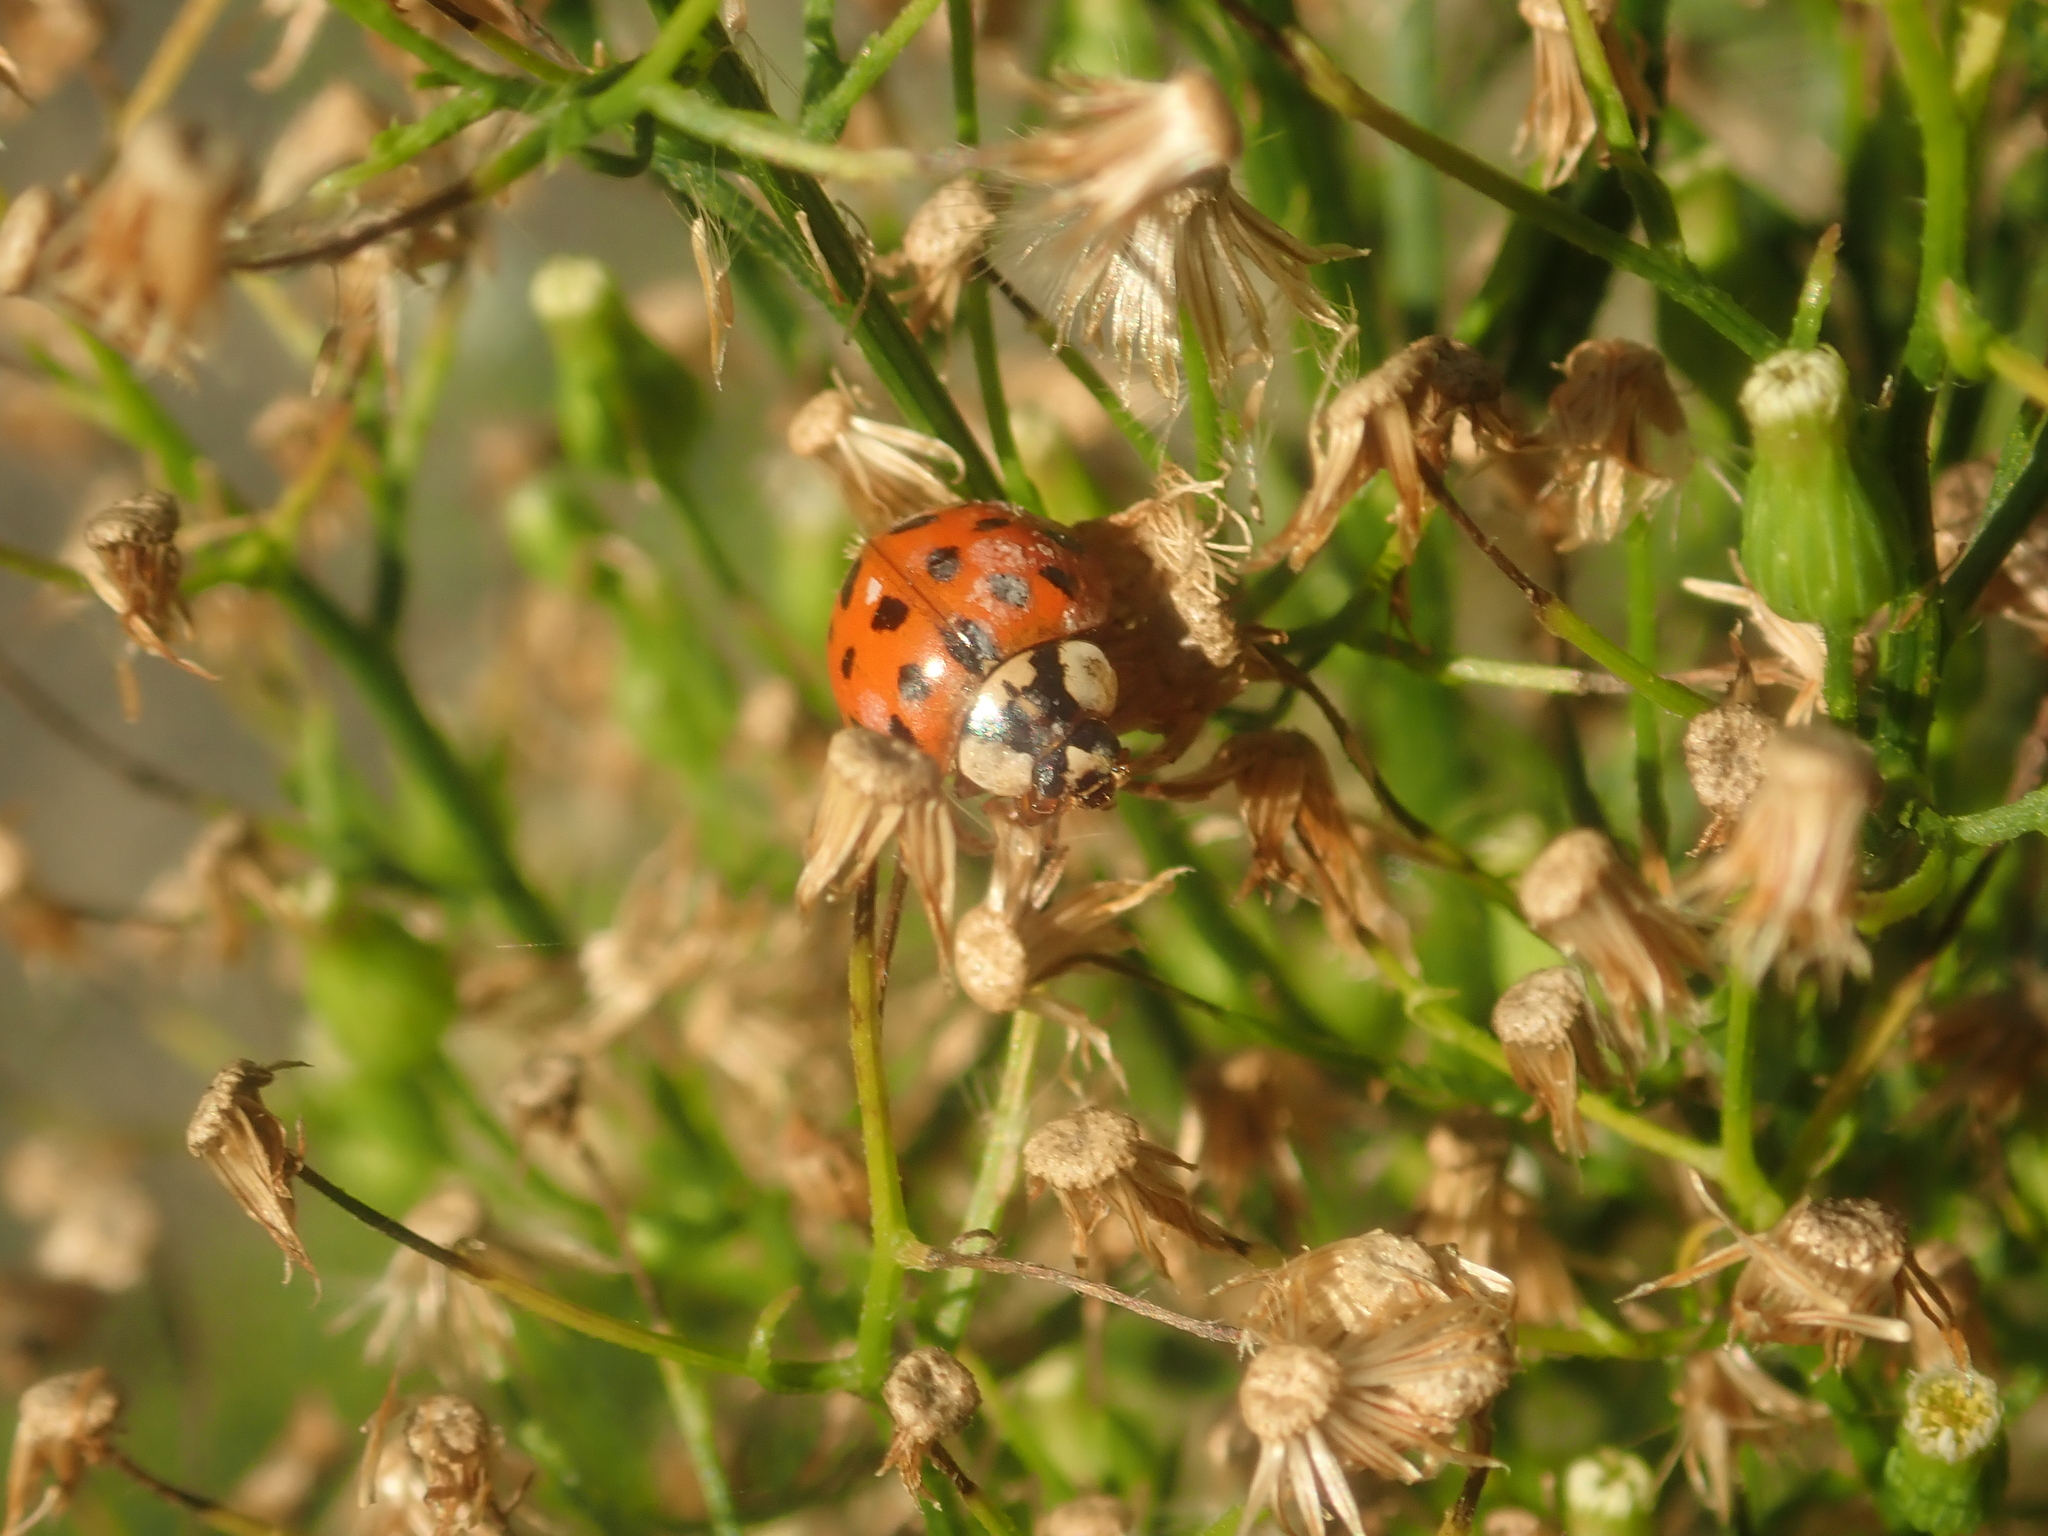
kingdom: Animalia
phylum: Arthropoda
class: Insecta
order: Coleoptera
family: Coccinellidae
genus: Harmonia
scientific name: Harmonia axyridis
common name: Harlequin ladybird
